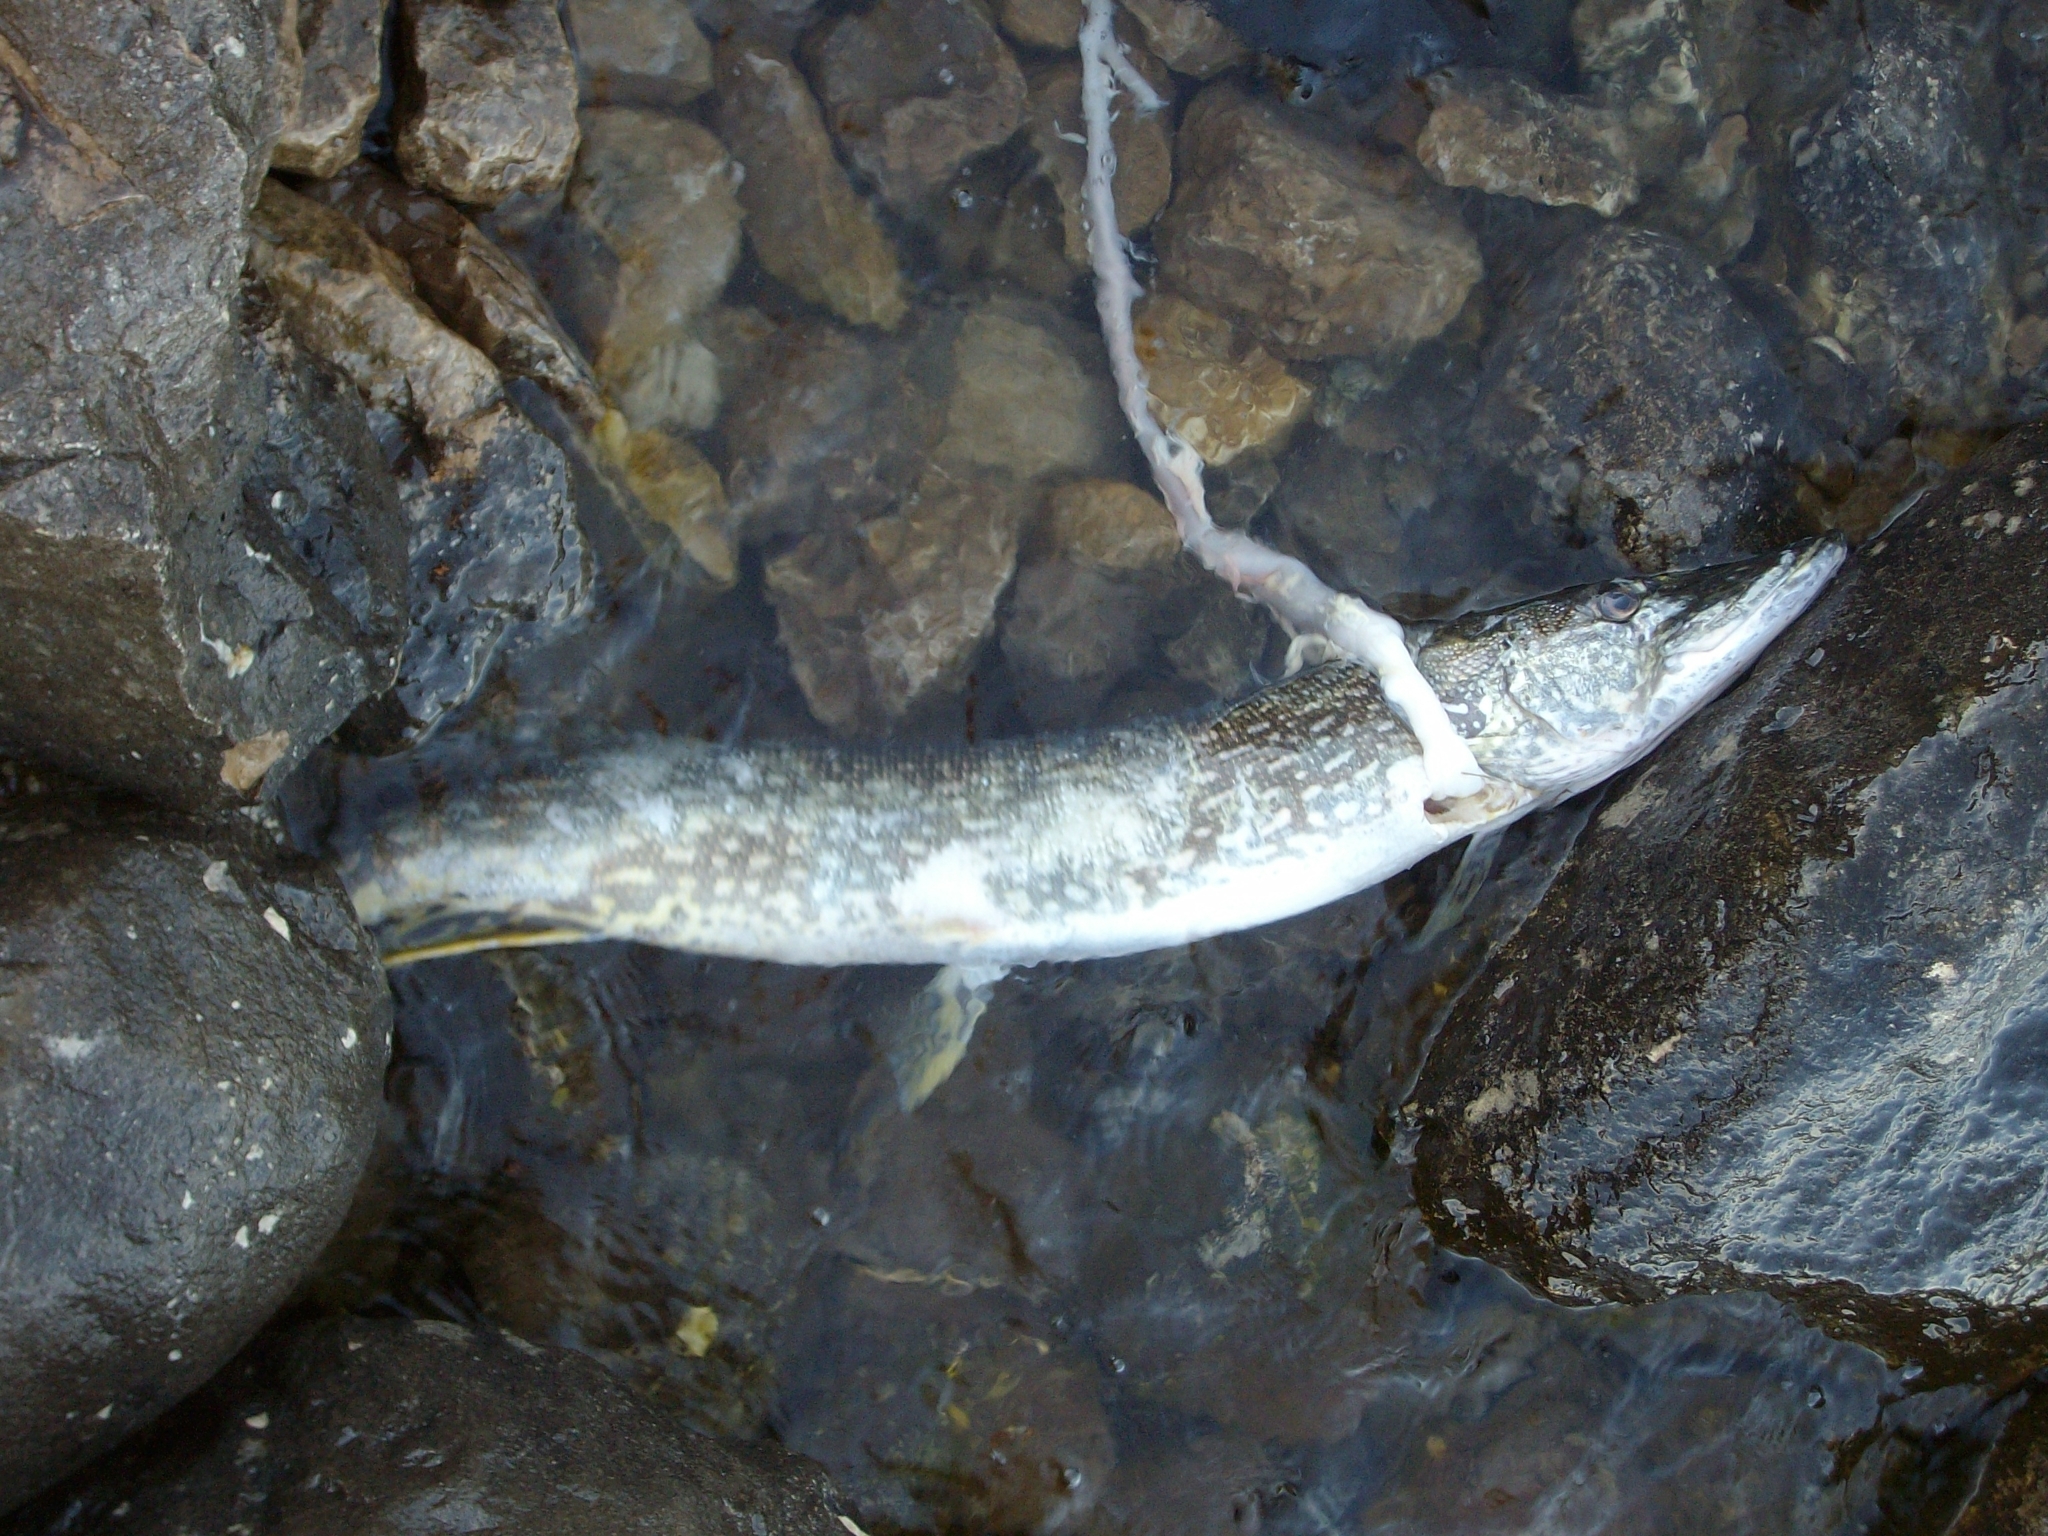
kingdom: Animalia
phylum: Chordata
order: Esociformes
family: Esocidae
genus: Esox
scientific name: Esox lucius
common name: Northern pike
